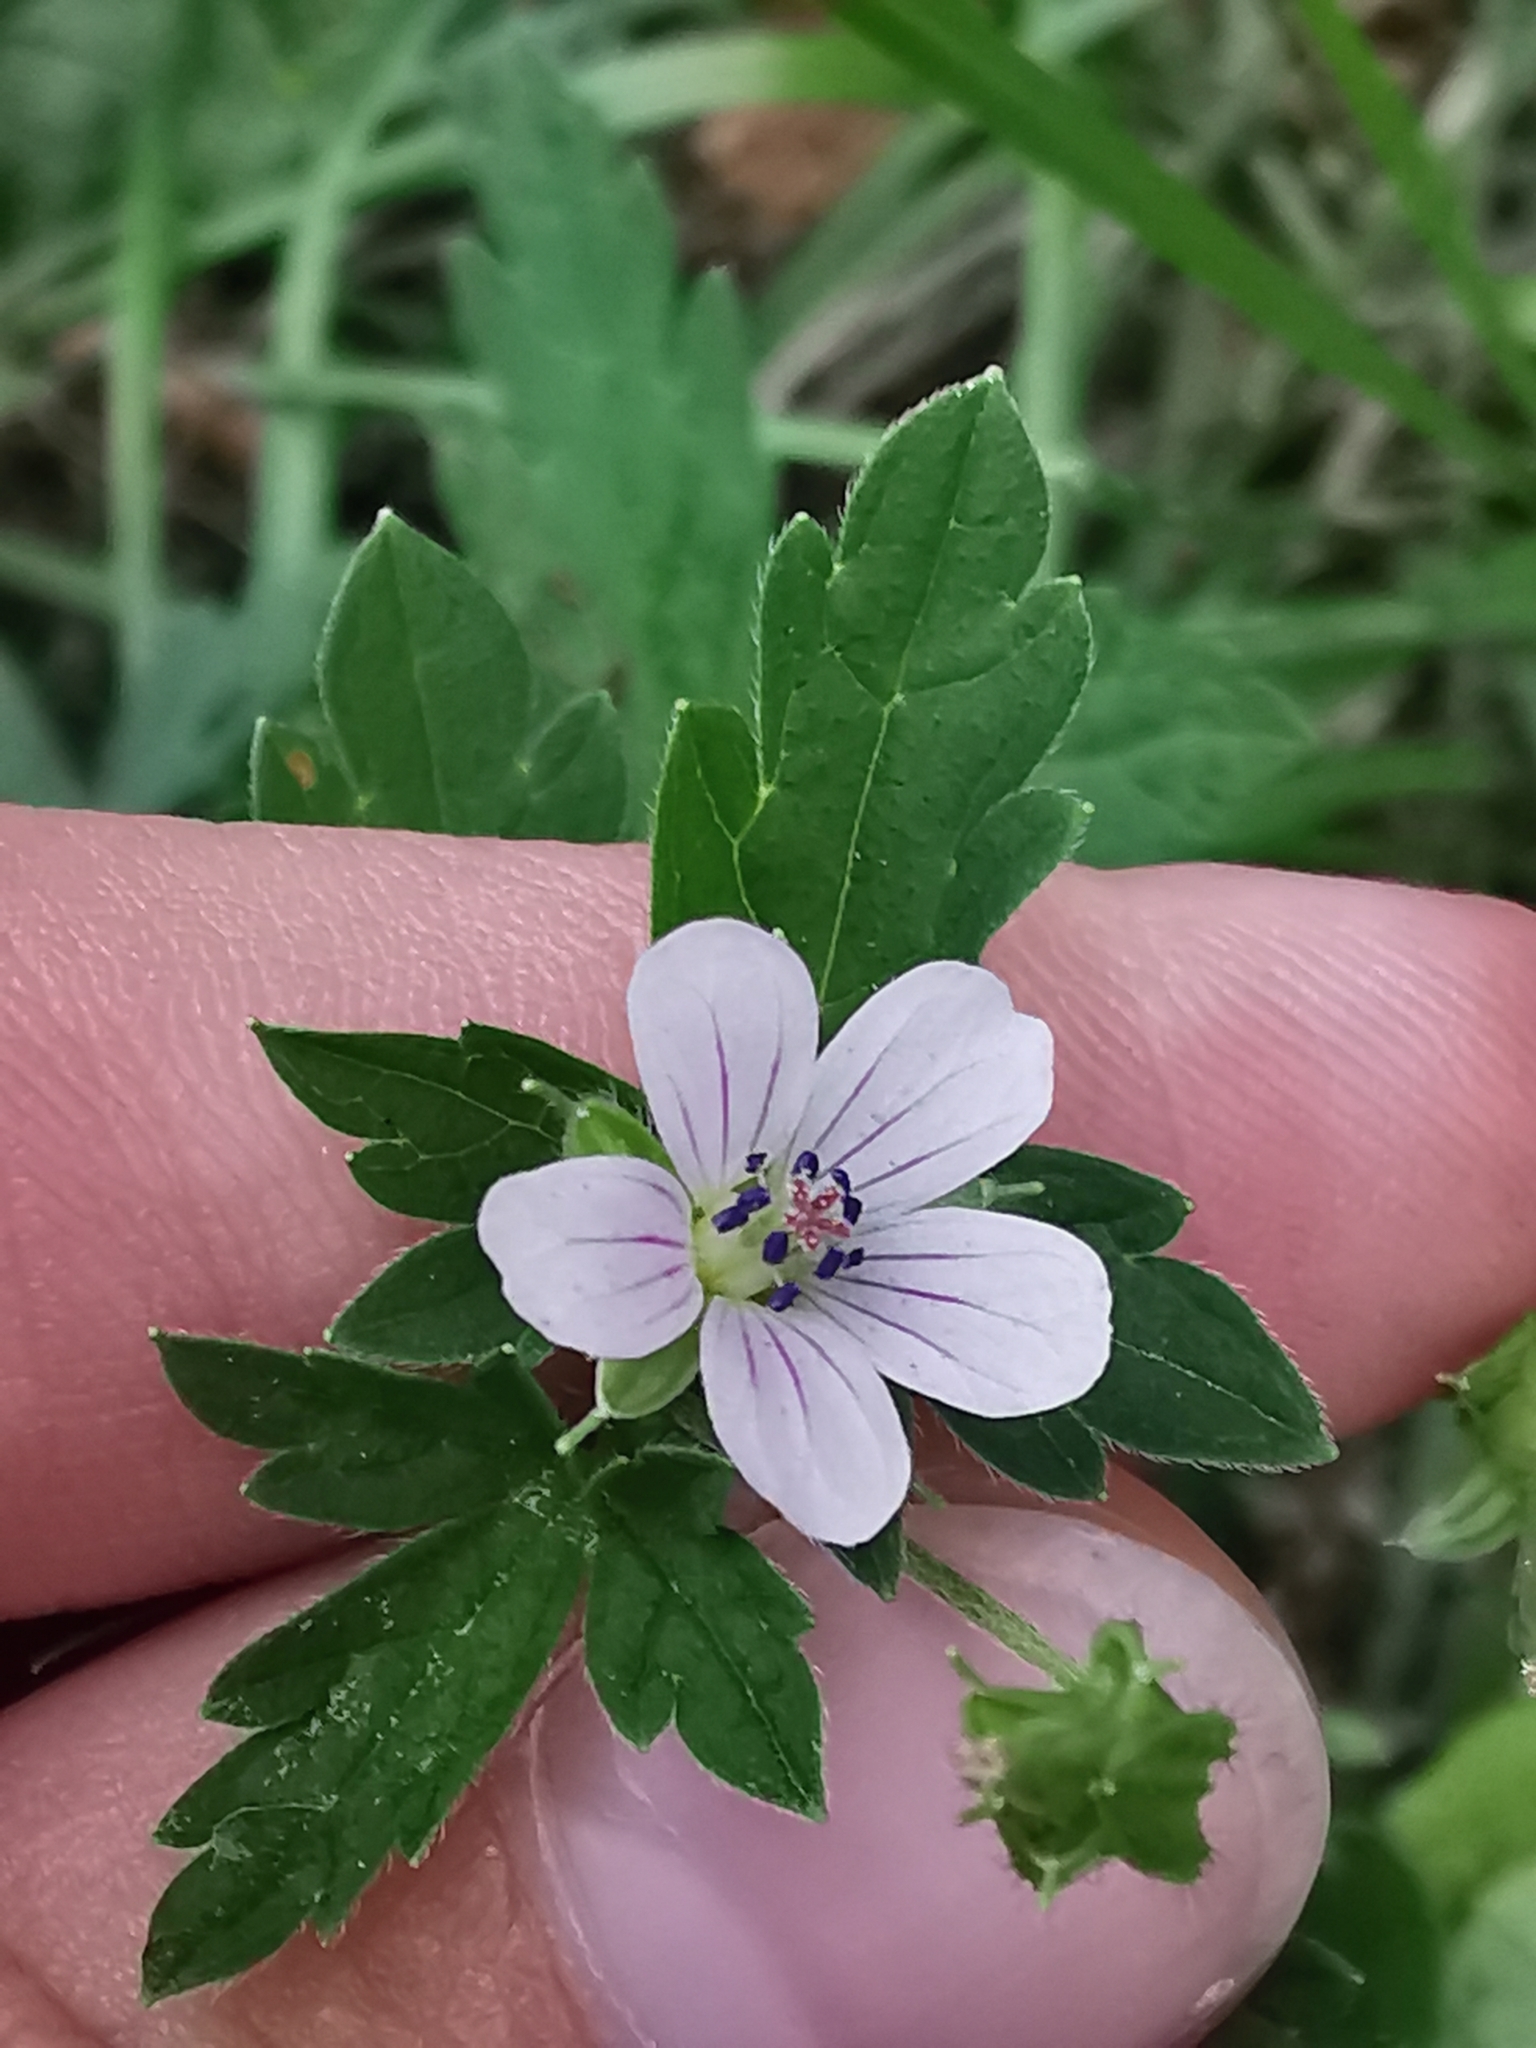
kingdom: Plantae
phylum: Tracheophyta
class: Magnoliopsida
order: Geraniales
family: Geraniaceae
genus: Geranium
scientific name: Geranium sibiricum
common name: Siberian crane's-bill
